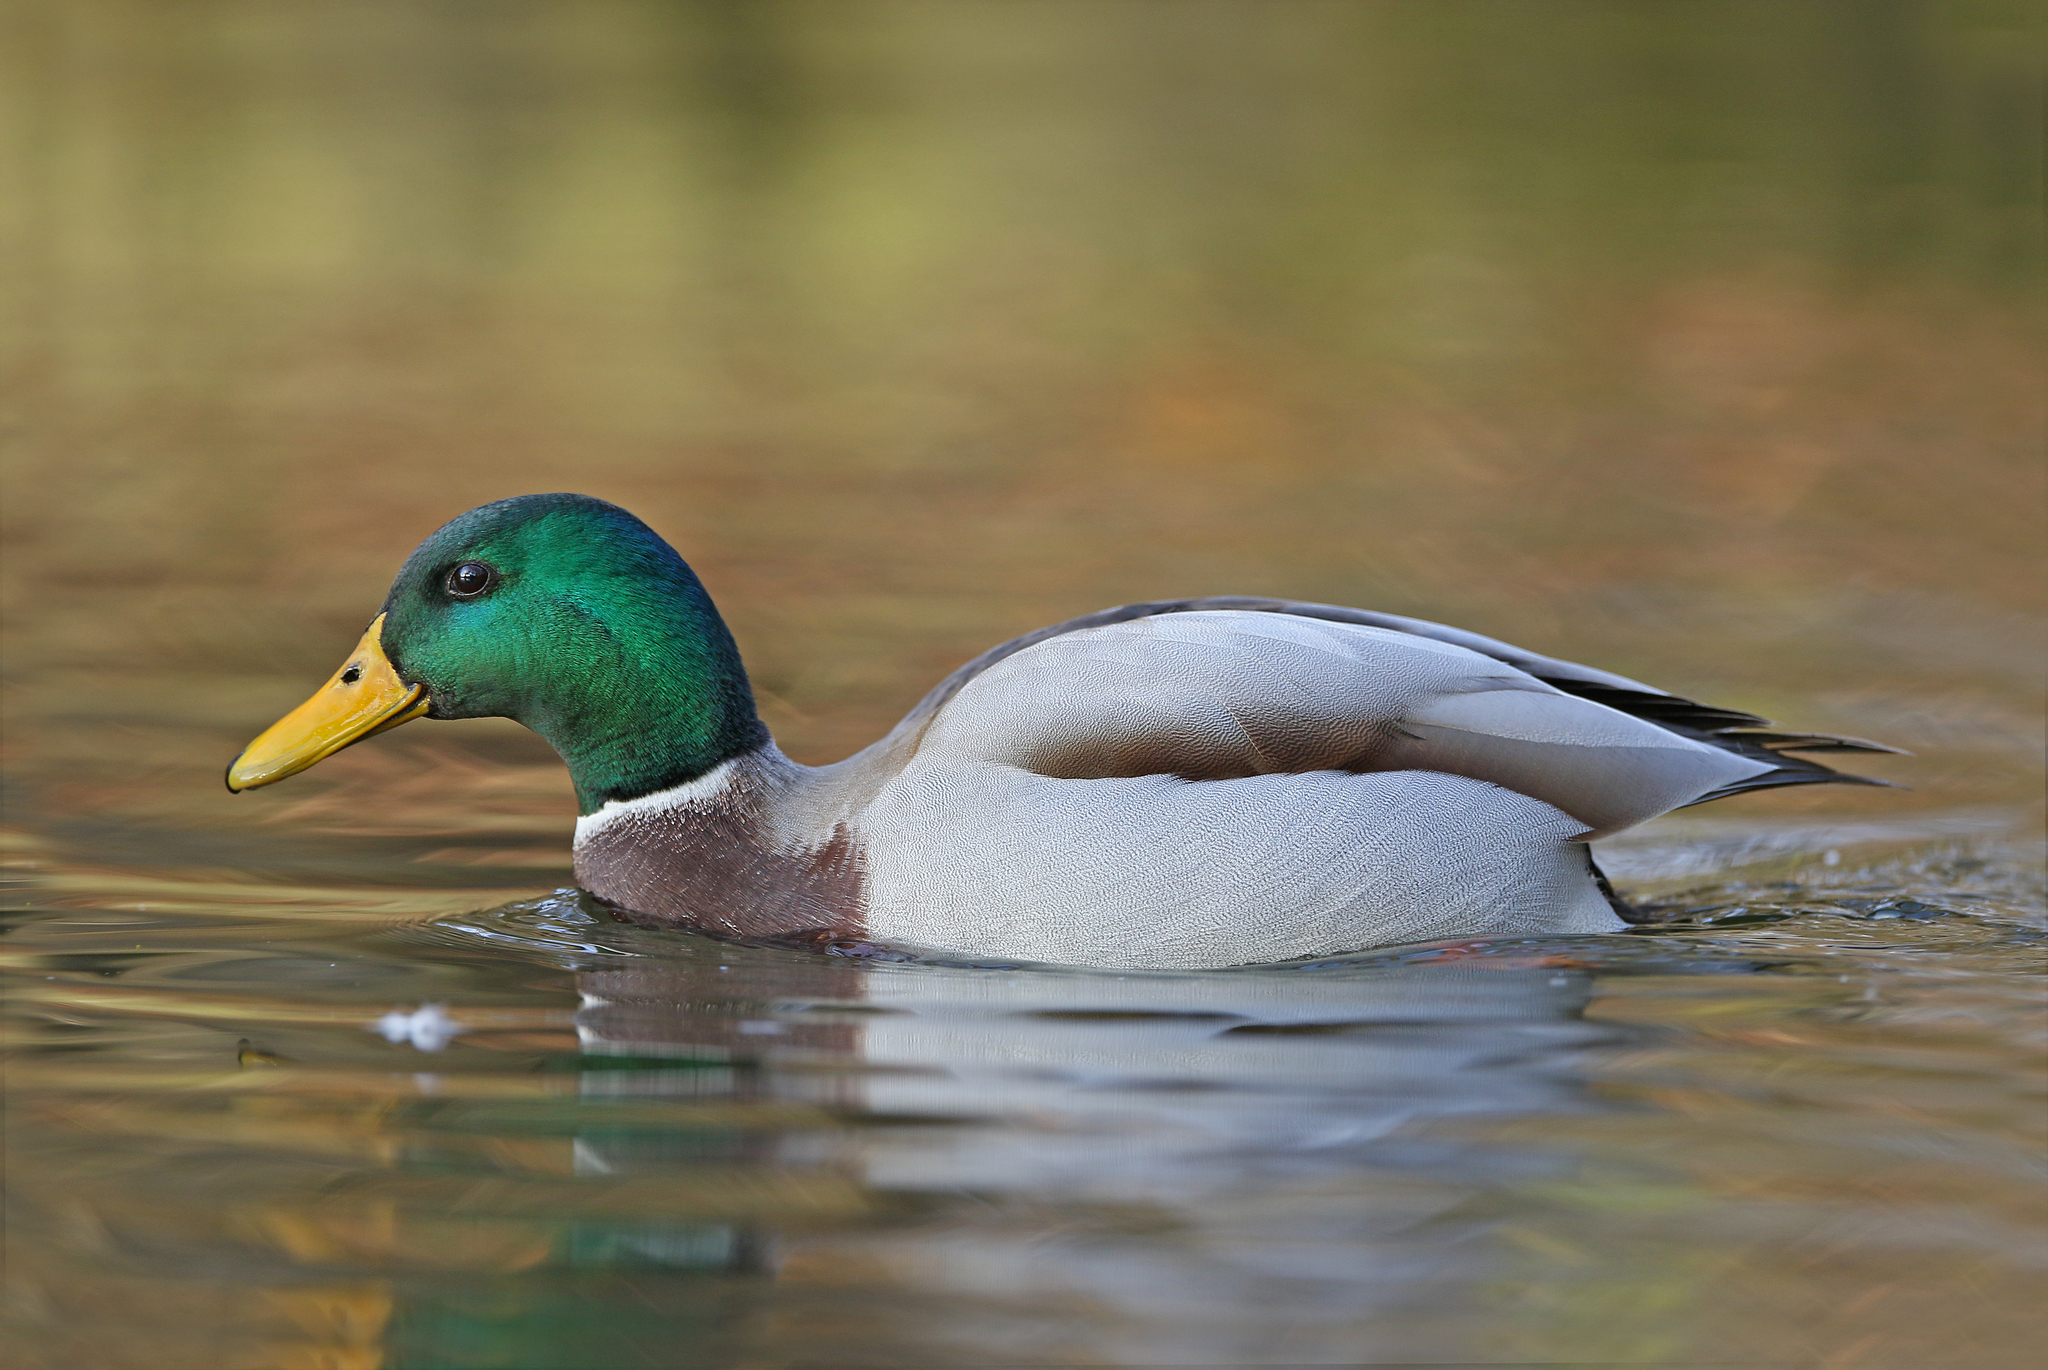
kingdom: Animalia
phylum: Chordata
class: Aves
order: Anseriformes
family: Anatidae
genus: Anas
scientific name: Anas platyrhynchos
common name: Mallard
